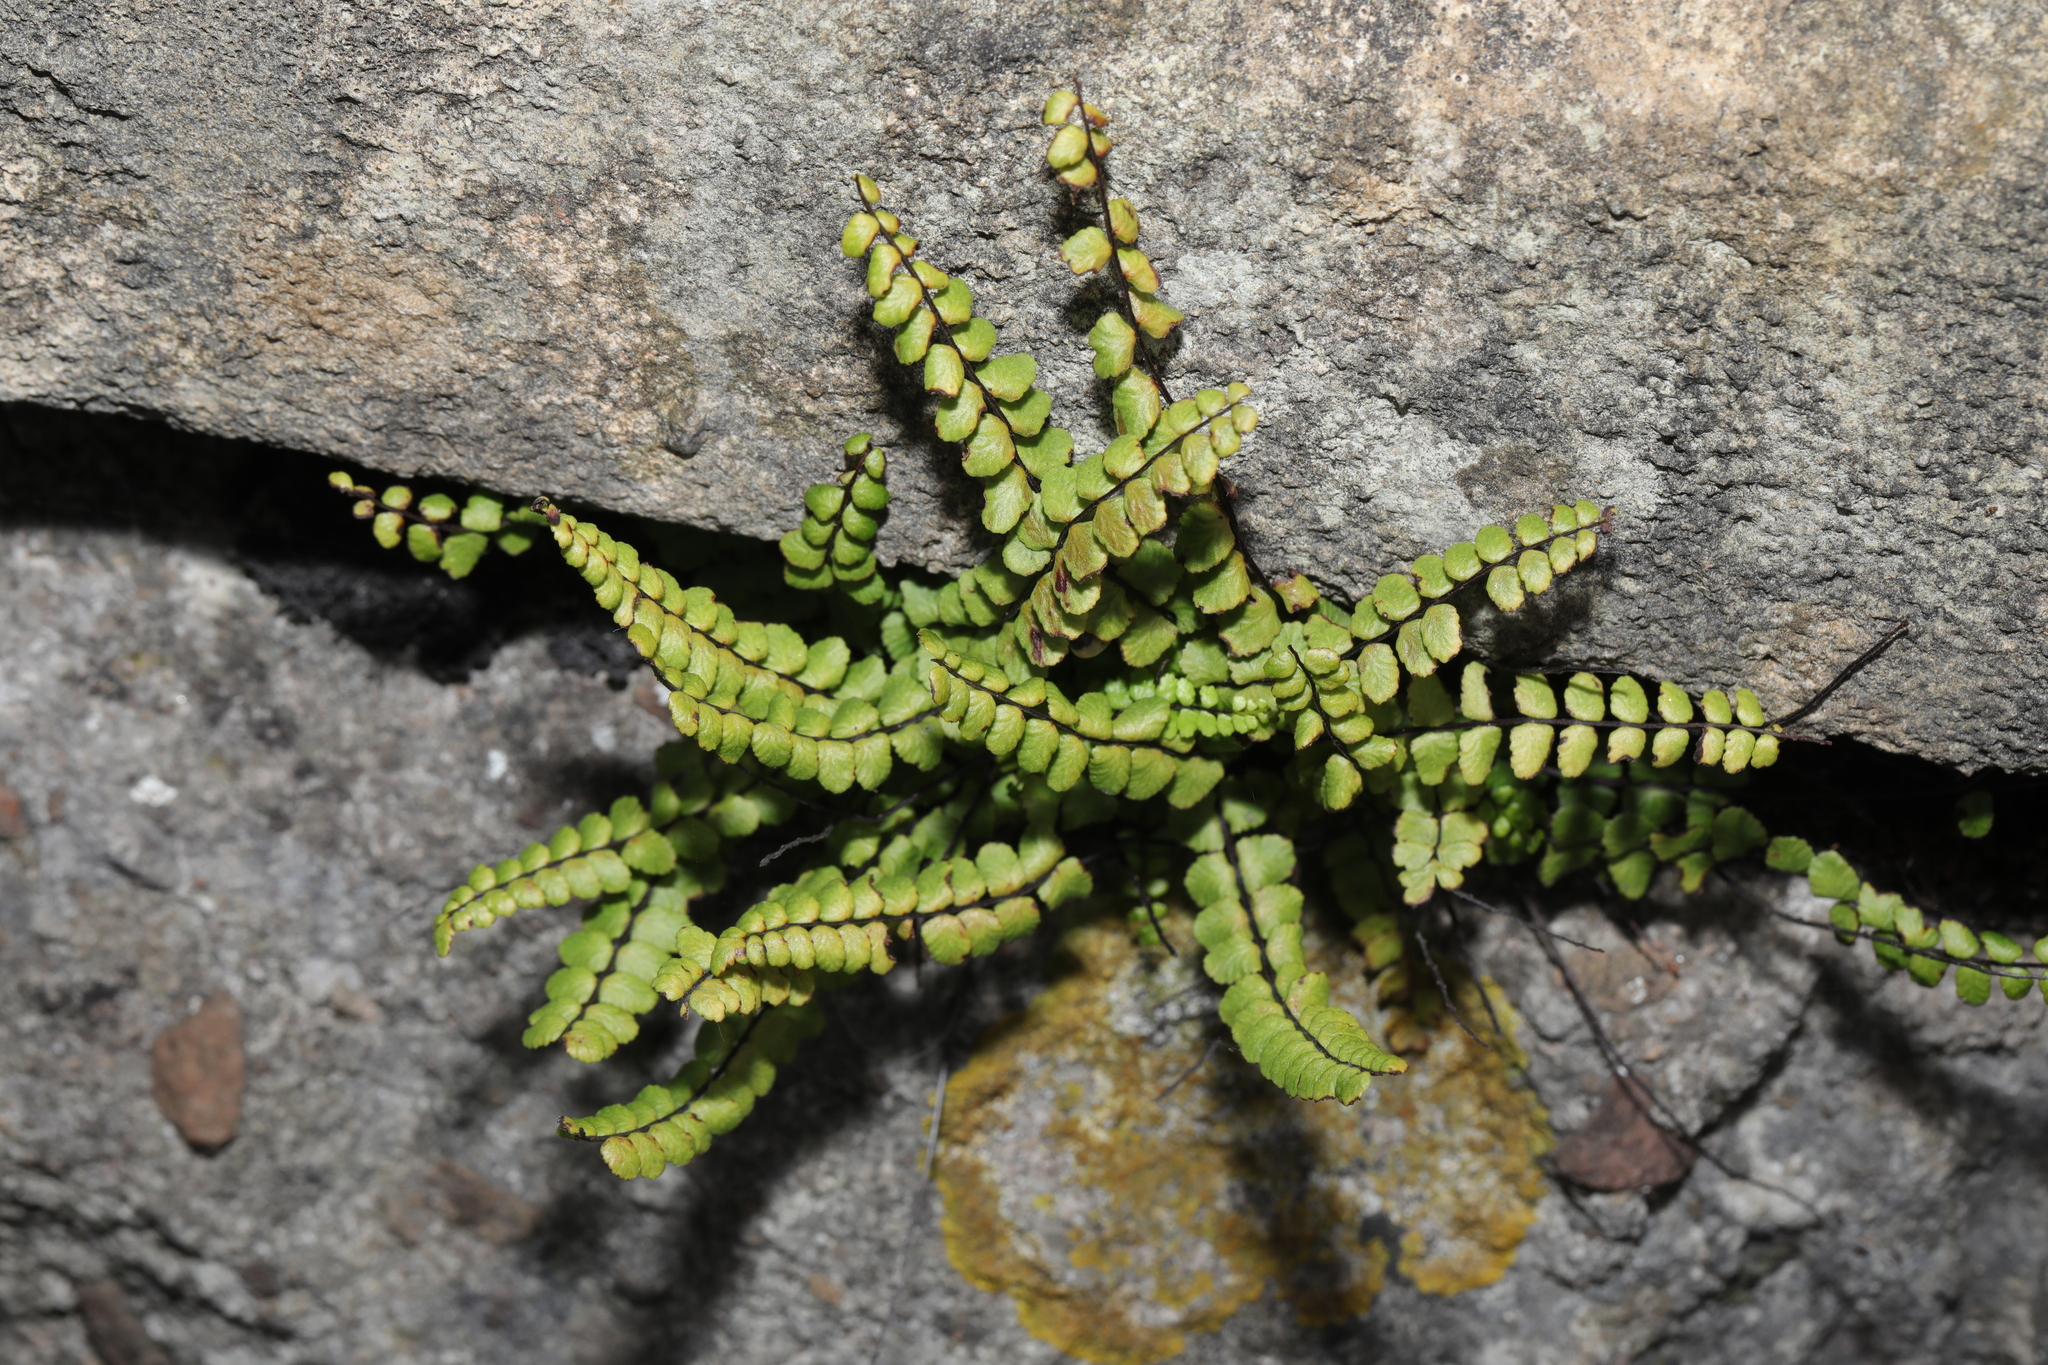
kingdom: Plantae
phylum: Tracheophyta
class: Polypodiopsida
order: Polypodiales
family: Aspleniaceae
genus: Asplenium
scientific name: Asplenium trichomanes
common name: Maidenhair spleenwort
